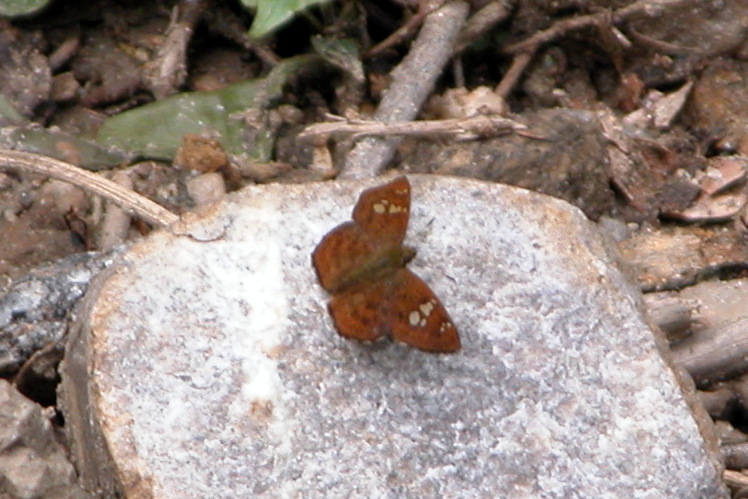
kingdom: Animalia
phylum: Arthropoda
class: Insecta
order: Lepidoptera
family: Hesperiidae
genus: Pseudocoladenia
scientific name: Pseudocoladenia fabia
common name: Fulvous pied flat
